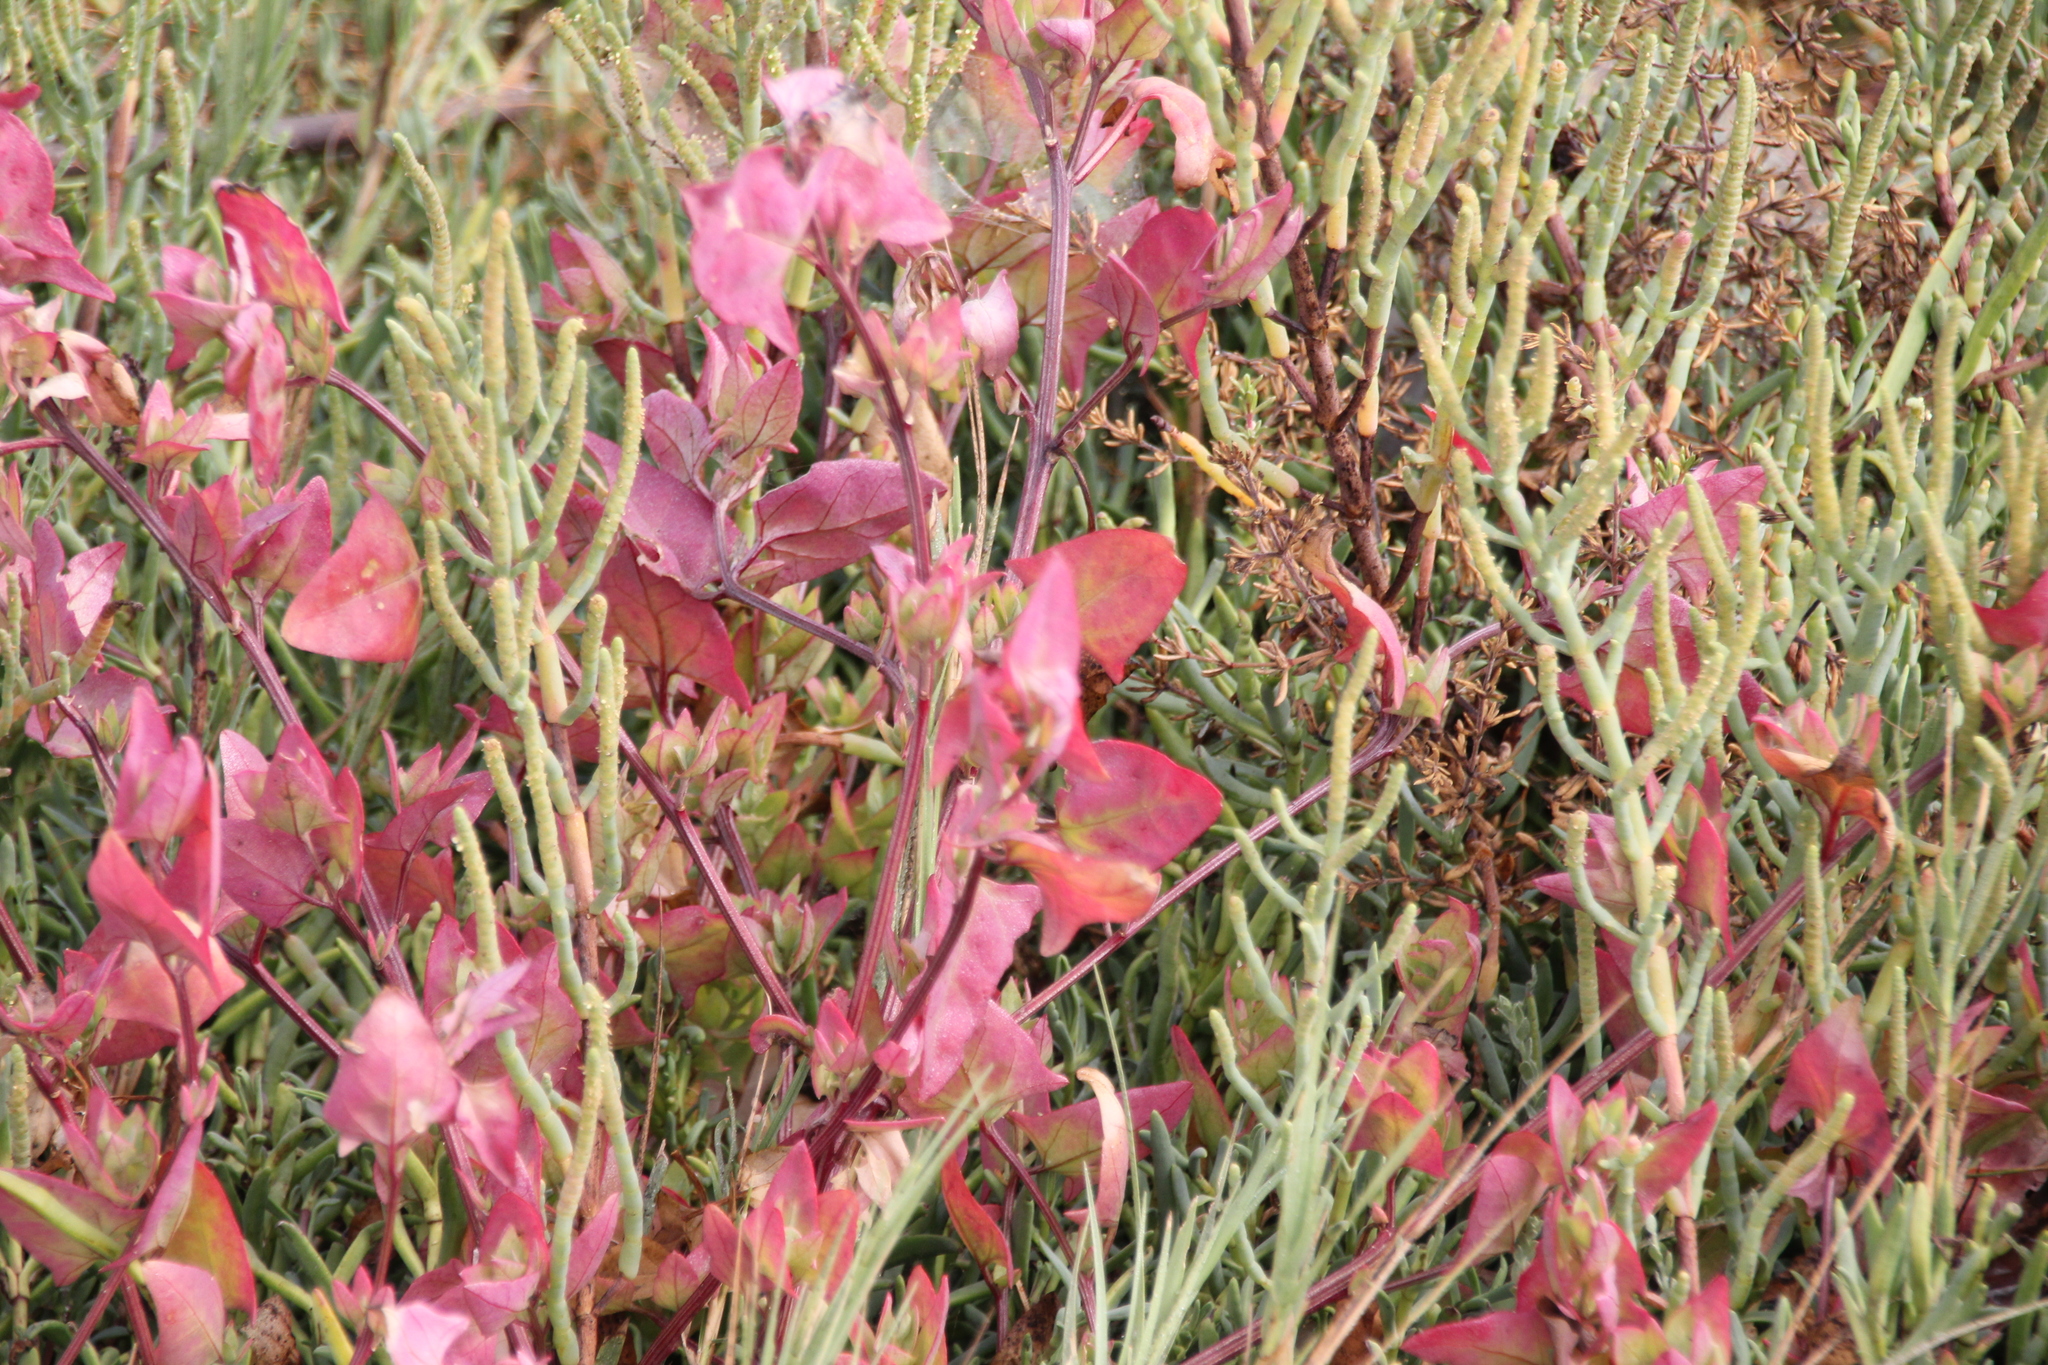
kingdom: Plantae
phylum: Tracheophyta
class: Magnoliopsida
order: Caryophyllales
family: Amaranthaceae
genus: Atriplex
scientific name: Atriplex prostrata
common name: Spear-leaved orache
